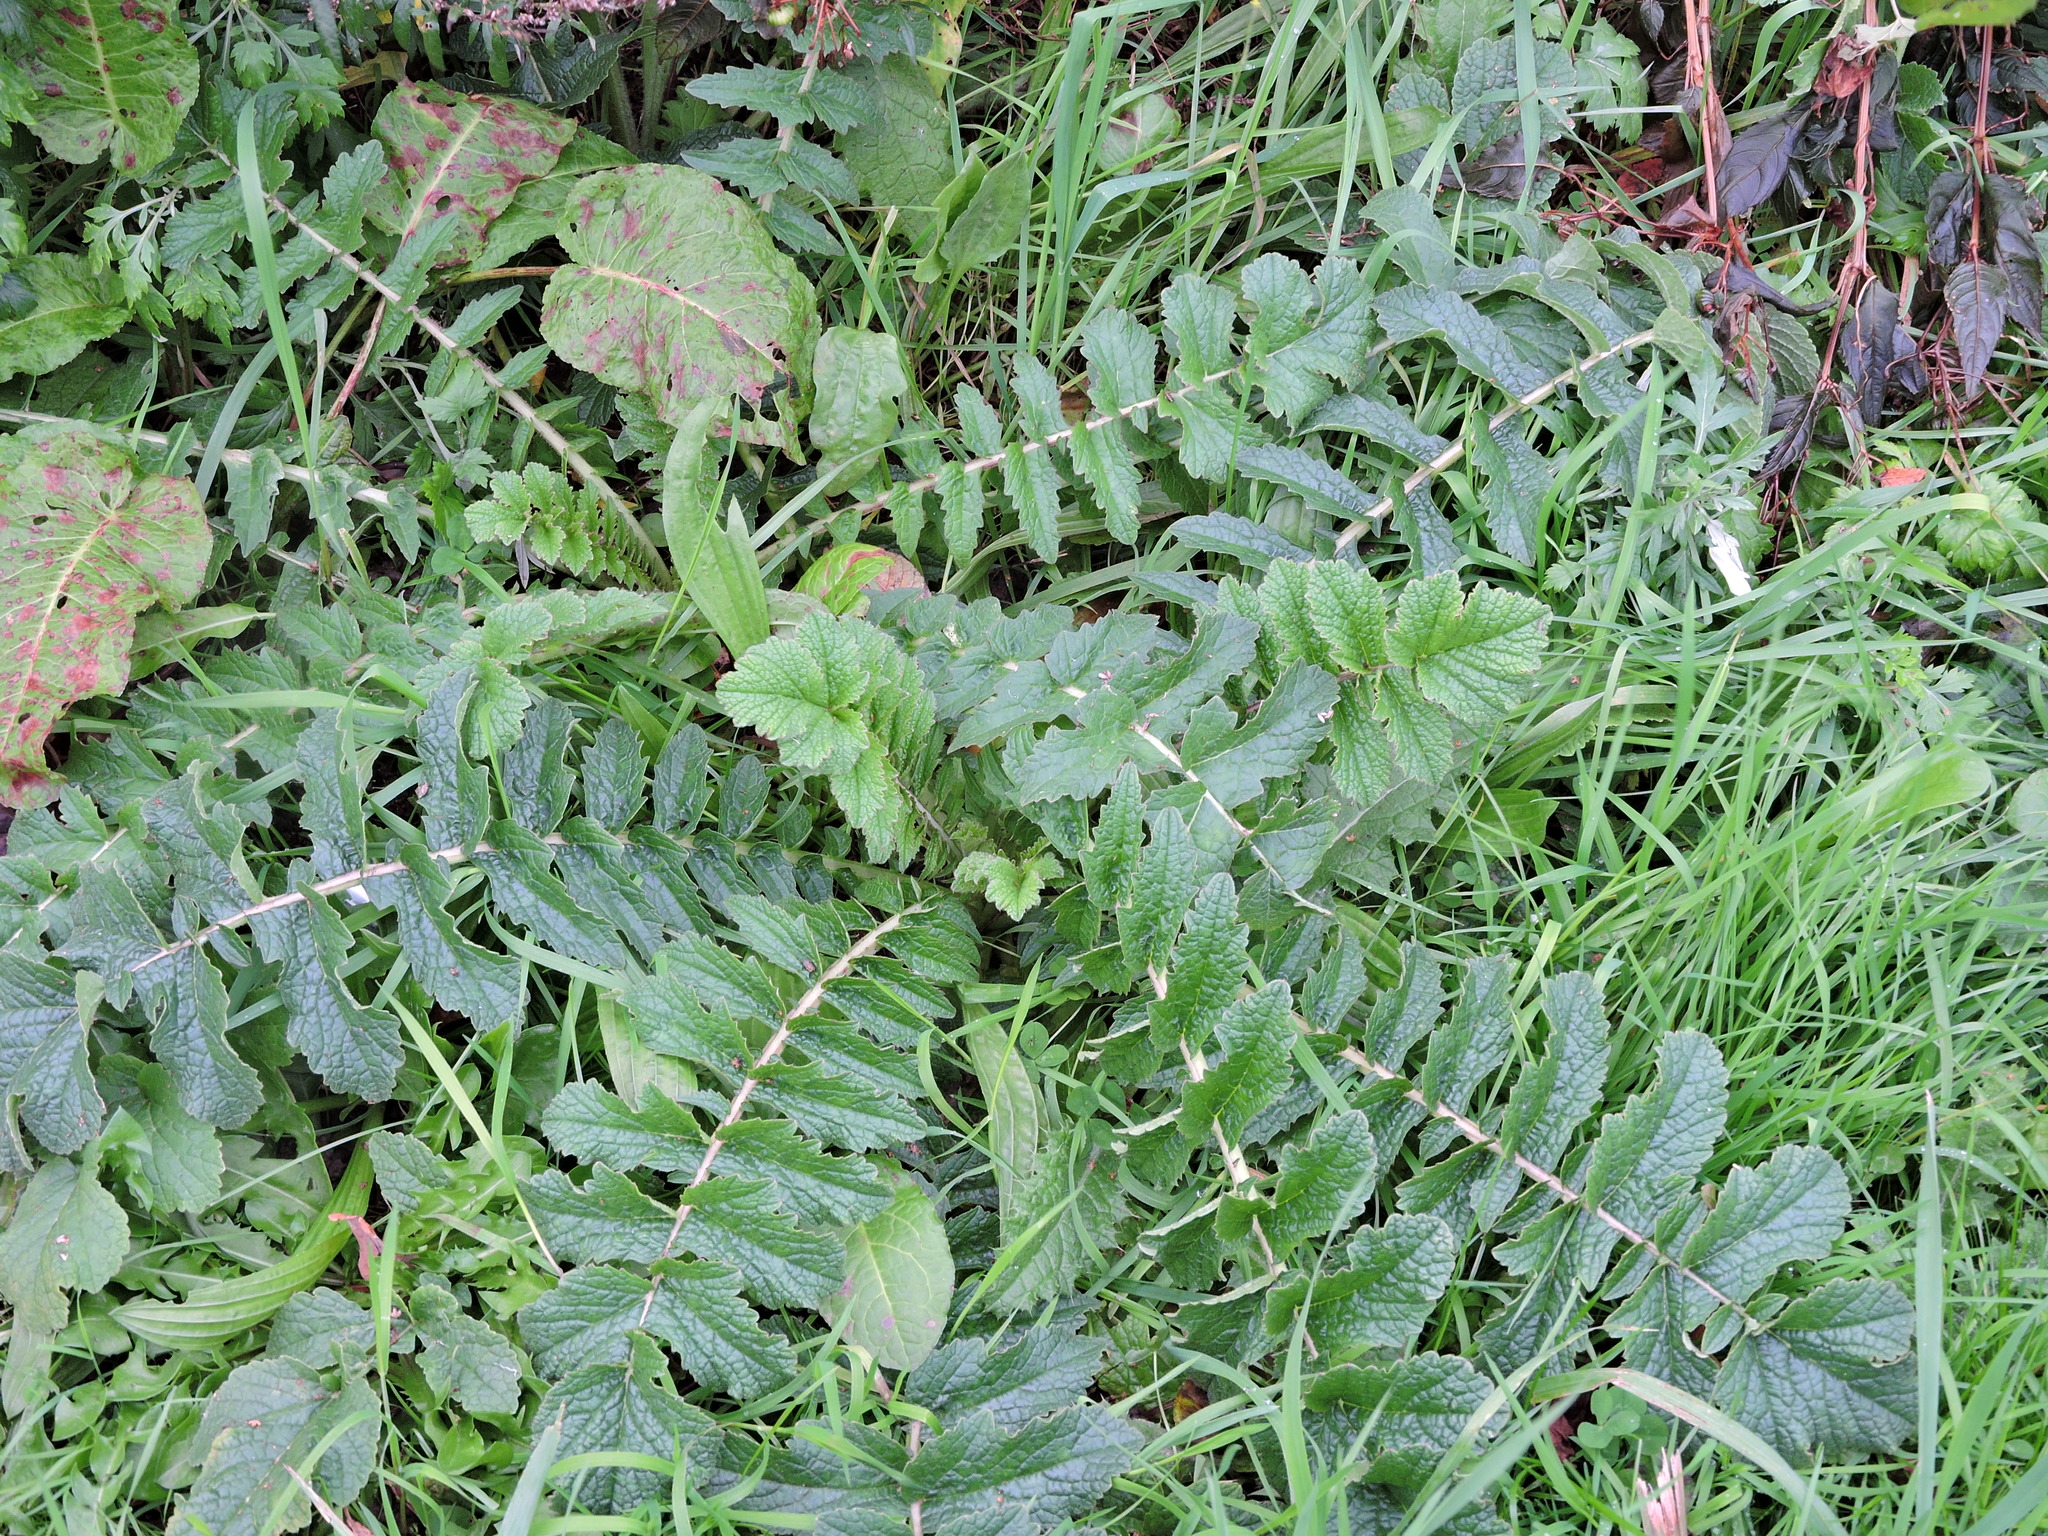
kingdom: Plantae
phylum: Tracheophyta
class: Magnoliopsida
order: Brassicales
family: Brassicaceae
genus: Raphanus
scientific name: Raphanus raphanistrum
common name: Wild radish
